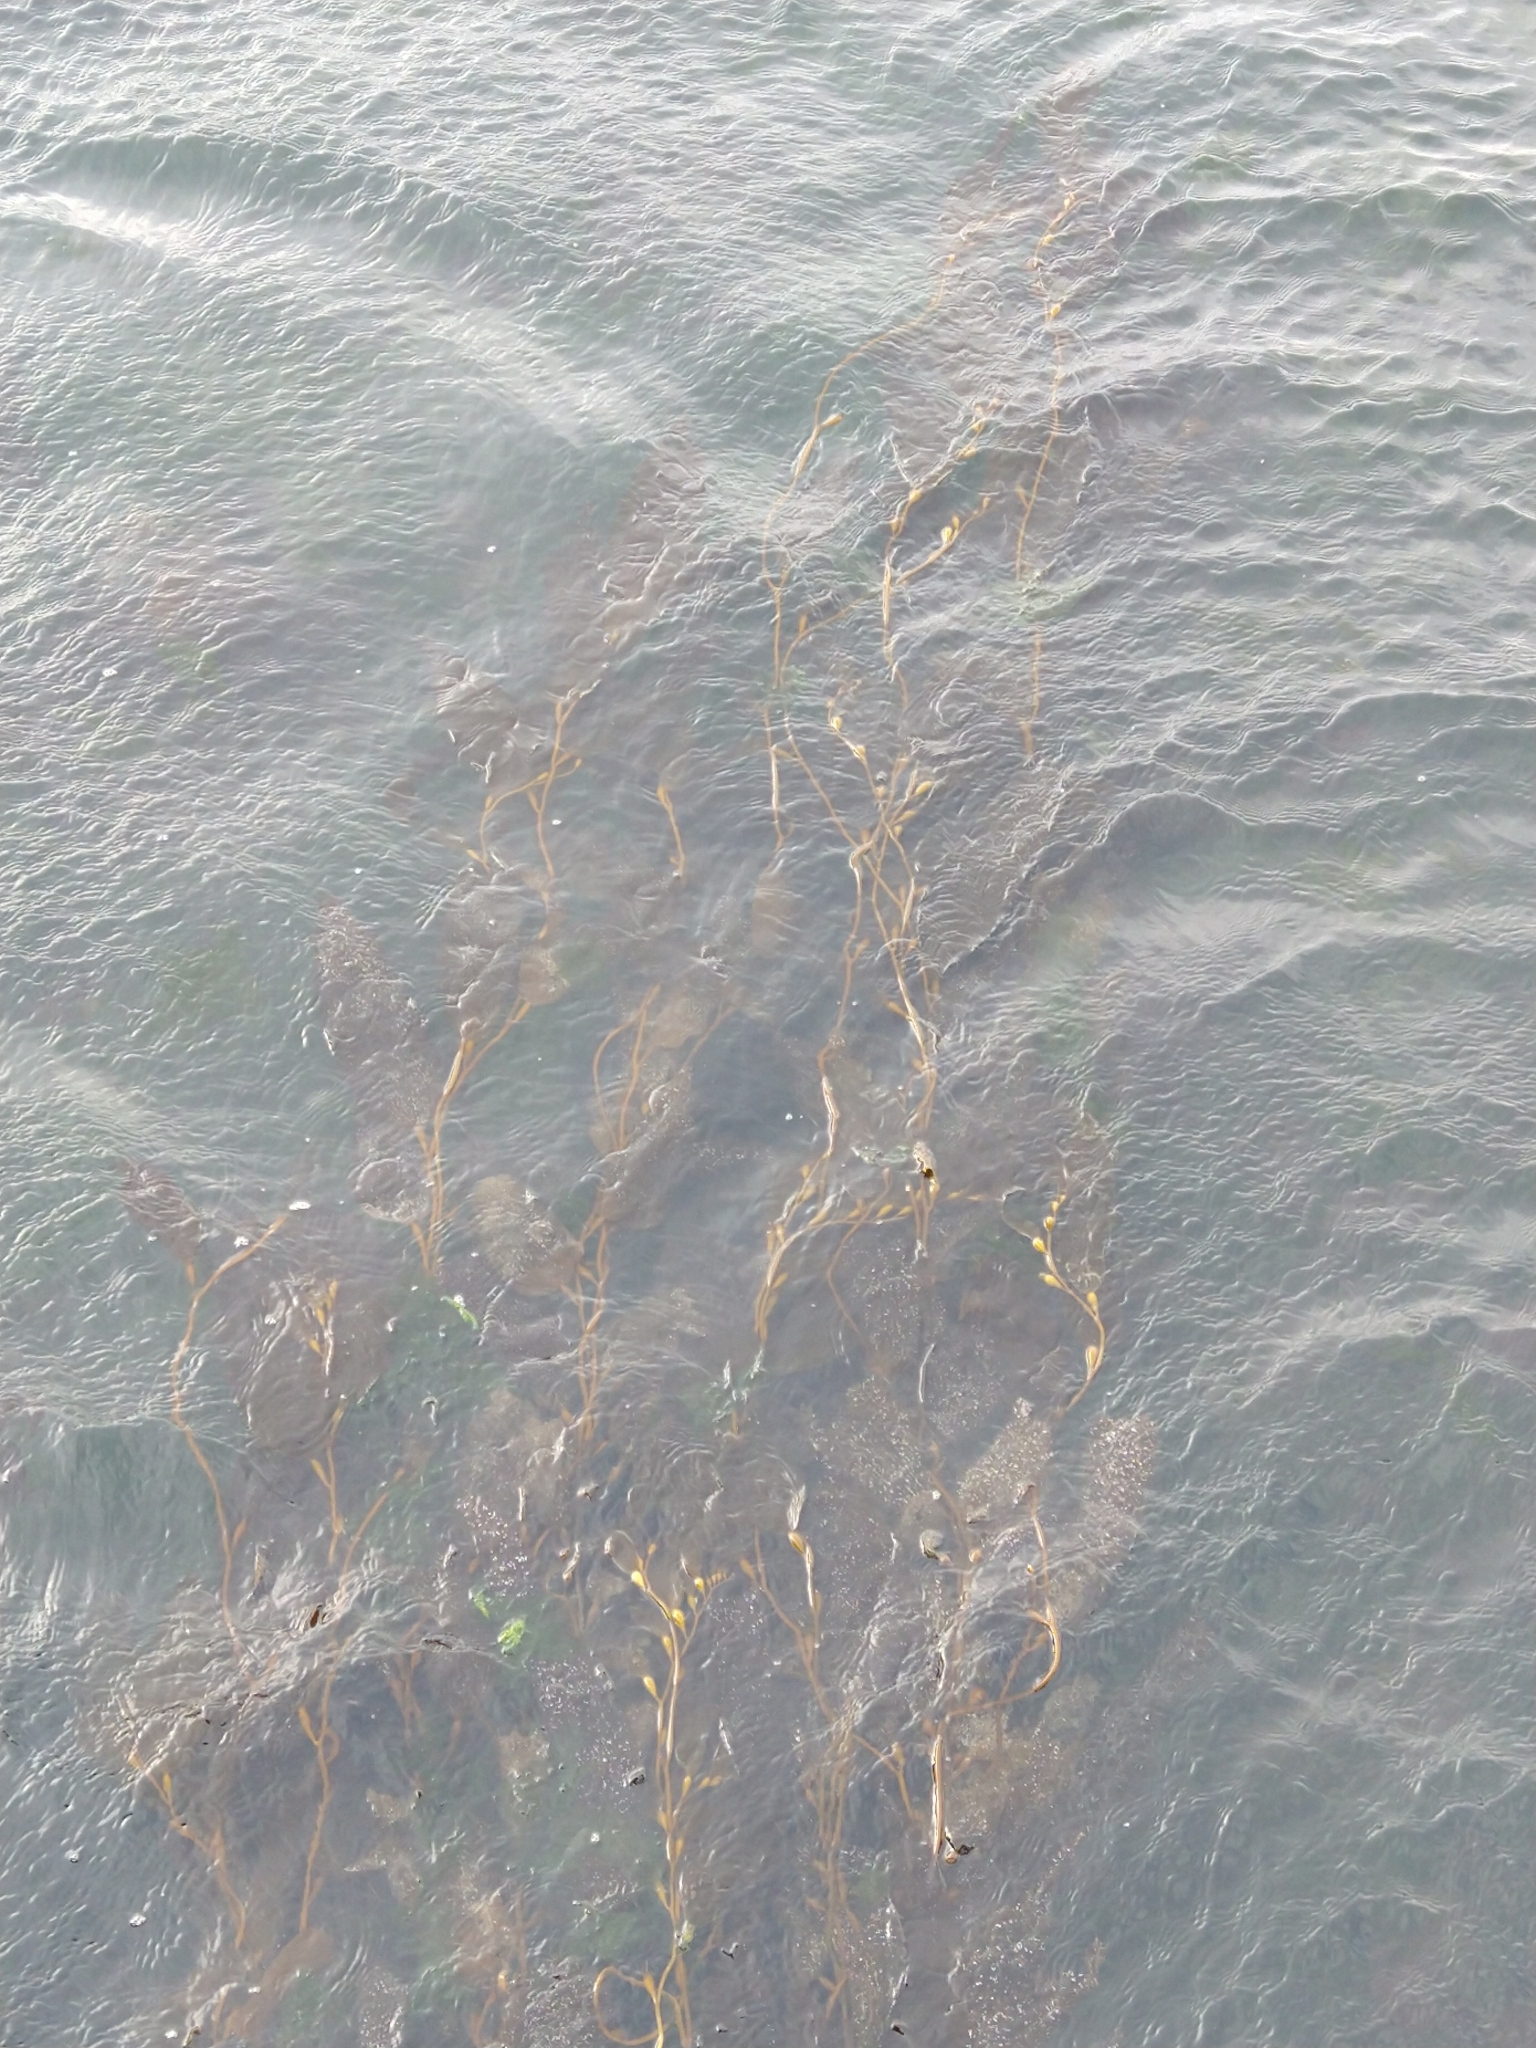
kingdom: Chromista
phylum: Ochrophyta
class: Phaeophyceae
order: Laminariales
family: Laminariaceae
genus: Macrocystis
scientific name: Macrocystis pyrifera
